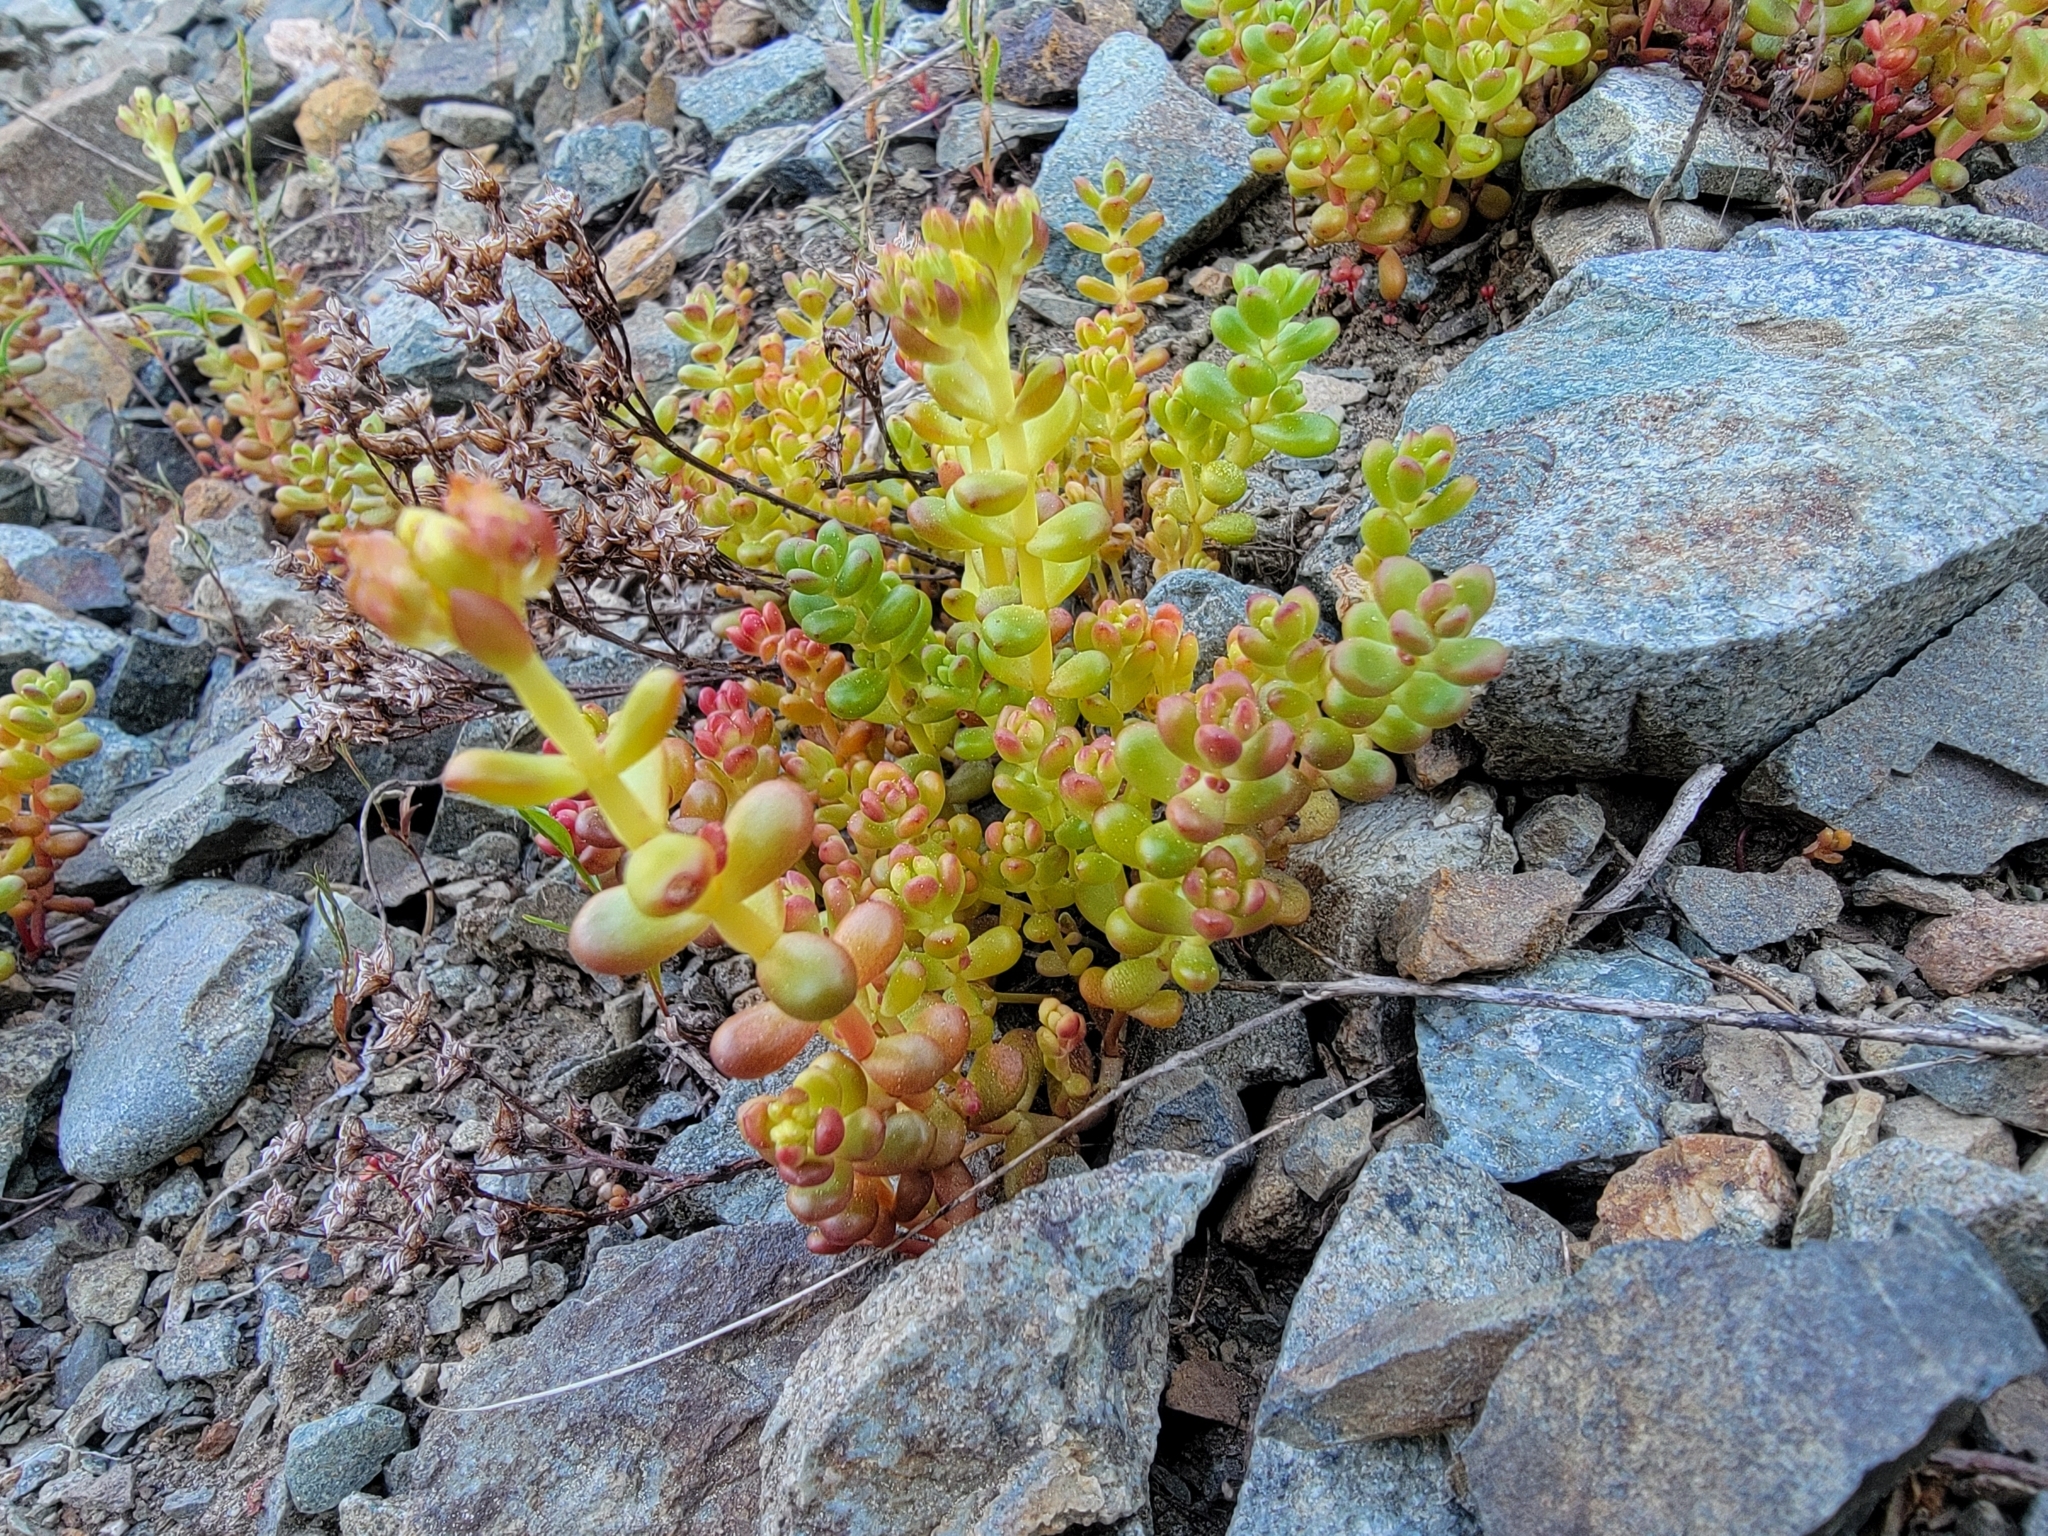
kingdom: Plantae
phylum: Tracheophyta
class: Magnoliopsida
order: Saxifragales
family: Crassulaceae
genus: Sedum
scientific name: Sedum divergens
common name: Cascade stonecrop
